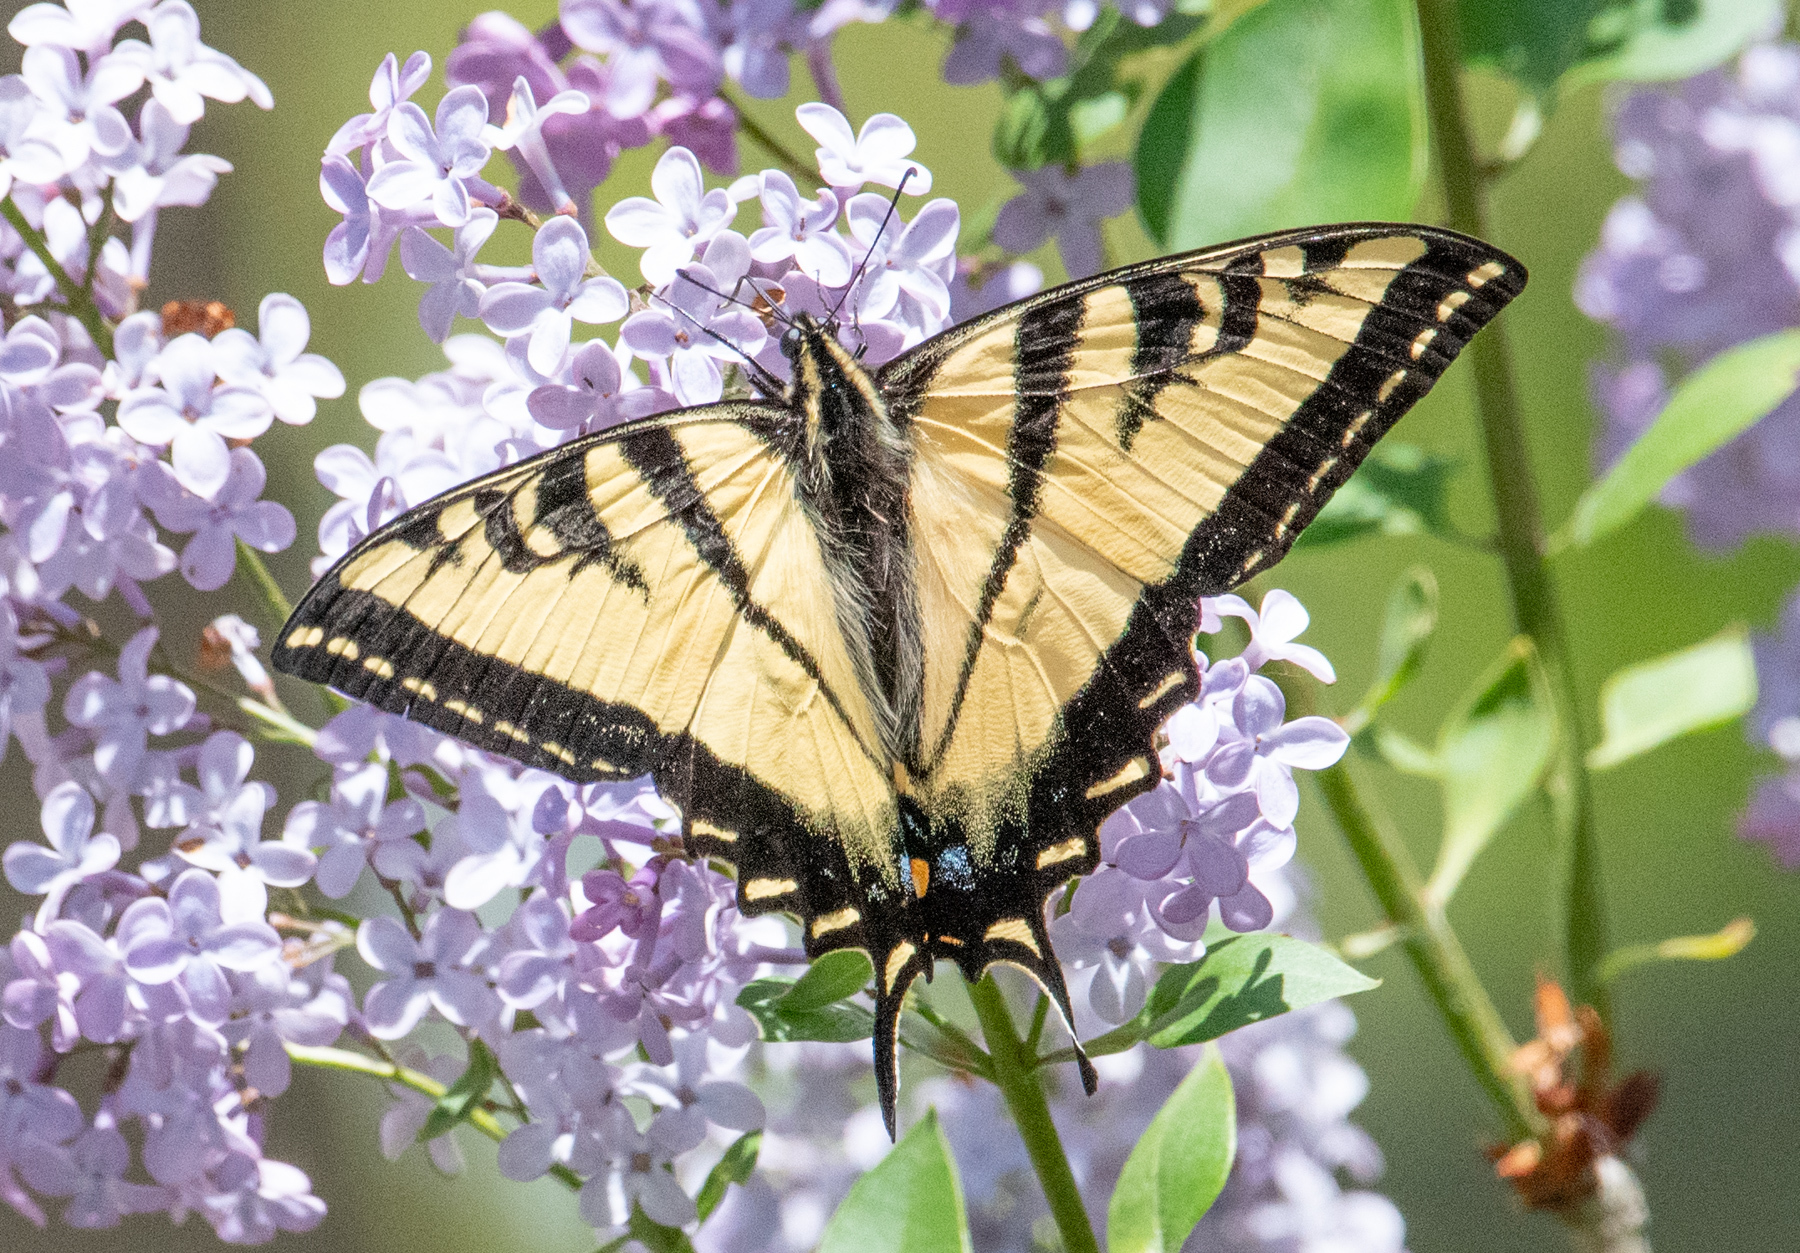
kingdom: Animalia
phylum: Arthropoda
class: Insecta
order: Lepidoptera
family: Papilionidae
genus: Papilio
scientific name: Papilio rutulus
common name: Western tiger swallowtail
